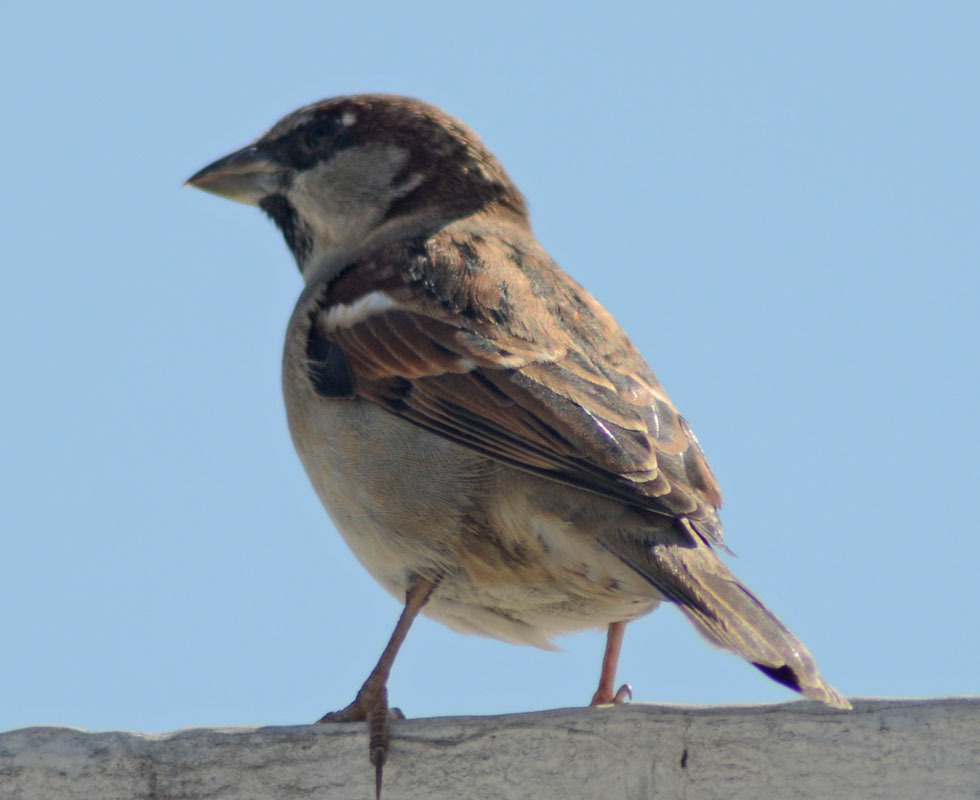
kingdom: Animalia
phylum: Chordata
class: Aves
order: Passeriformes
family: Passeridae
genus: Passer
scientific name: Passer domesticus
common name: House sparrow
